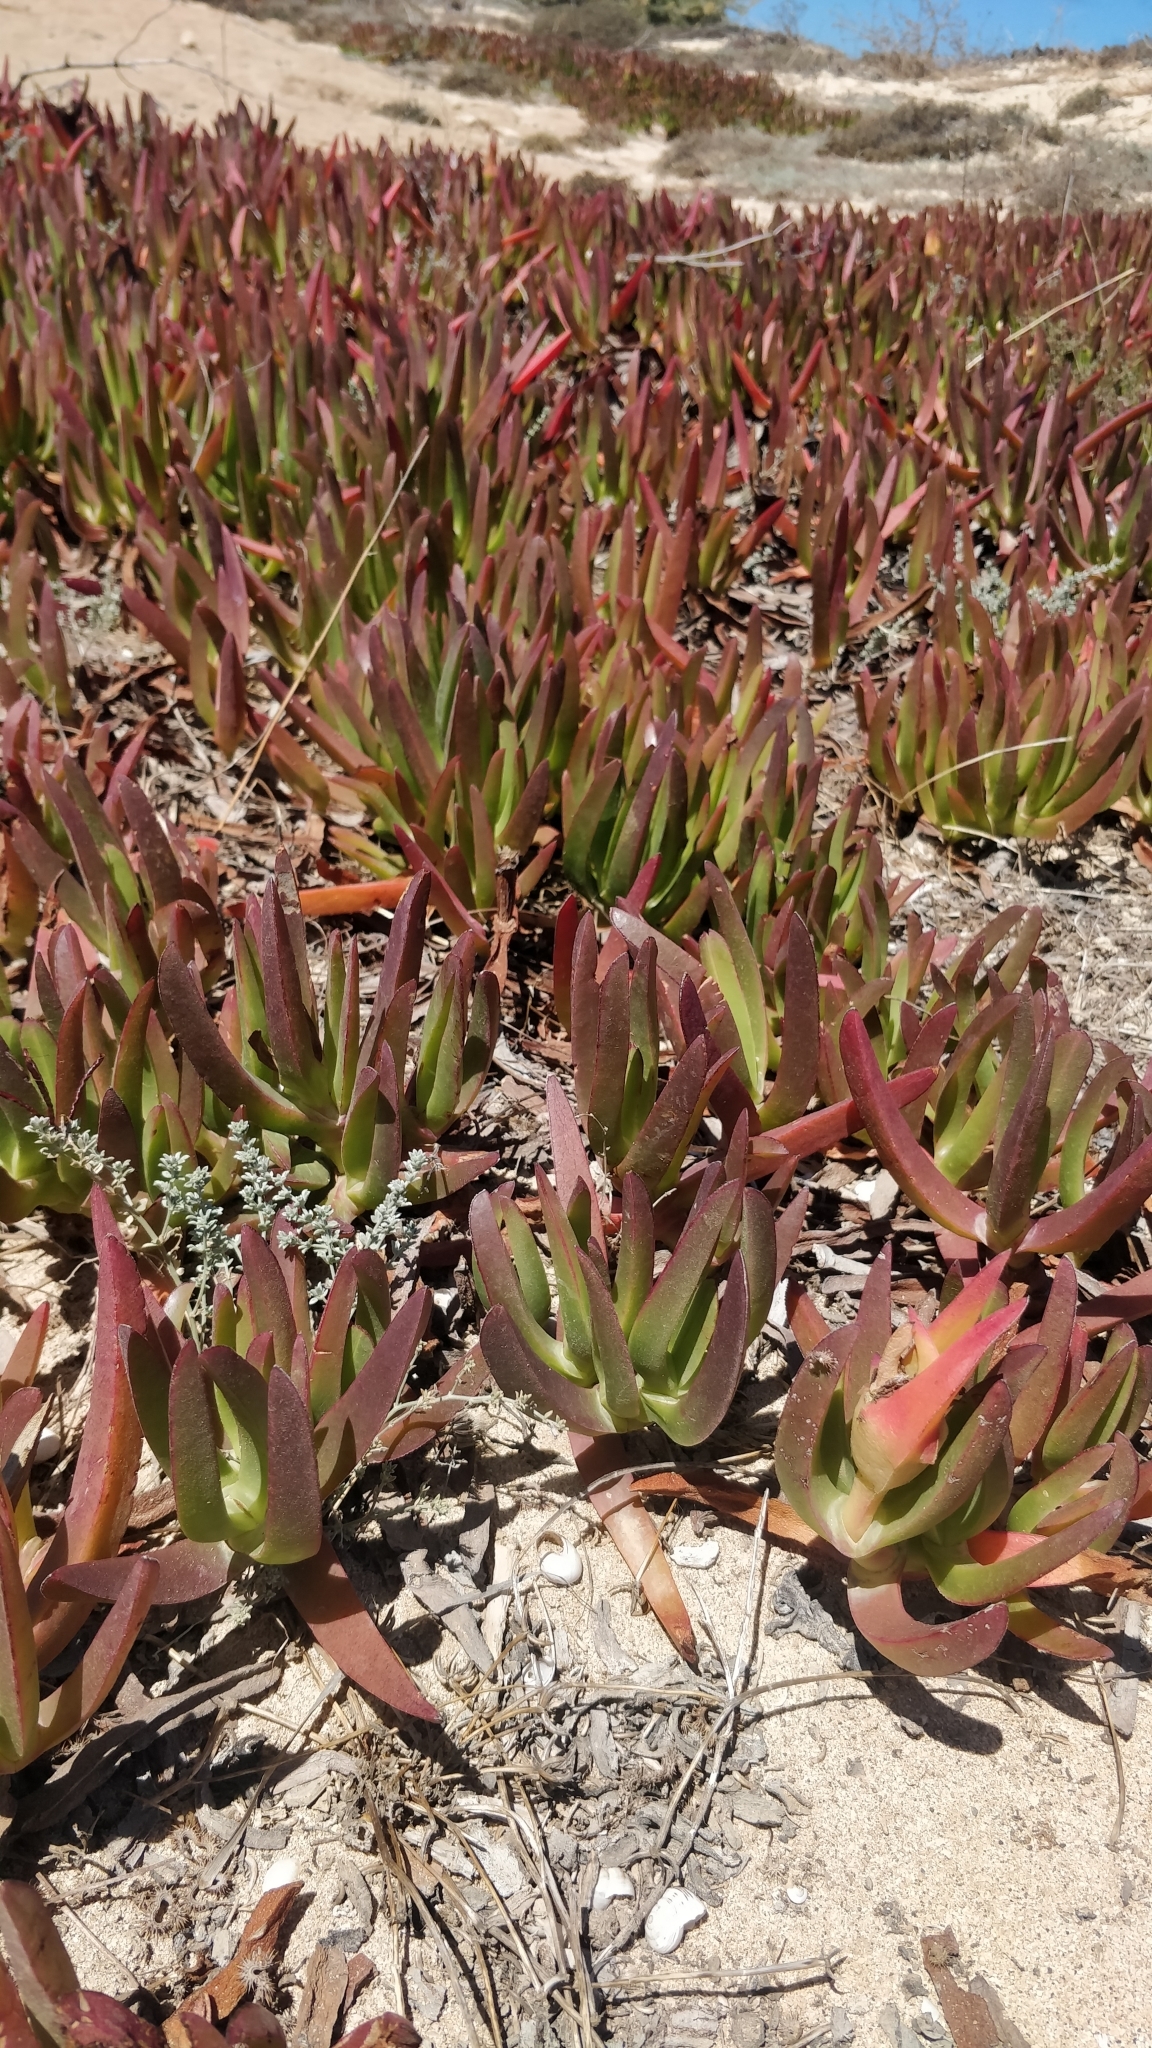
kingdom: Plantae
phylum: Tracheophyta
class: Magnoliopsida
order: Caryophyllales
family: Aizoaceae
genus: Carpobrotus
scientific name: Carpobrotus edulis
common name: Hottentot-fig
